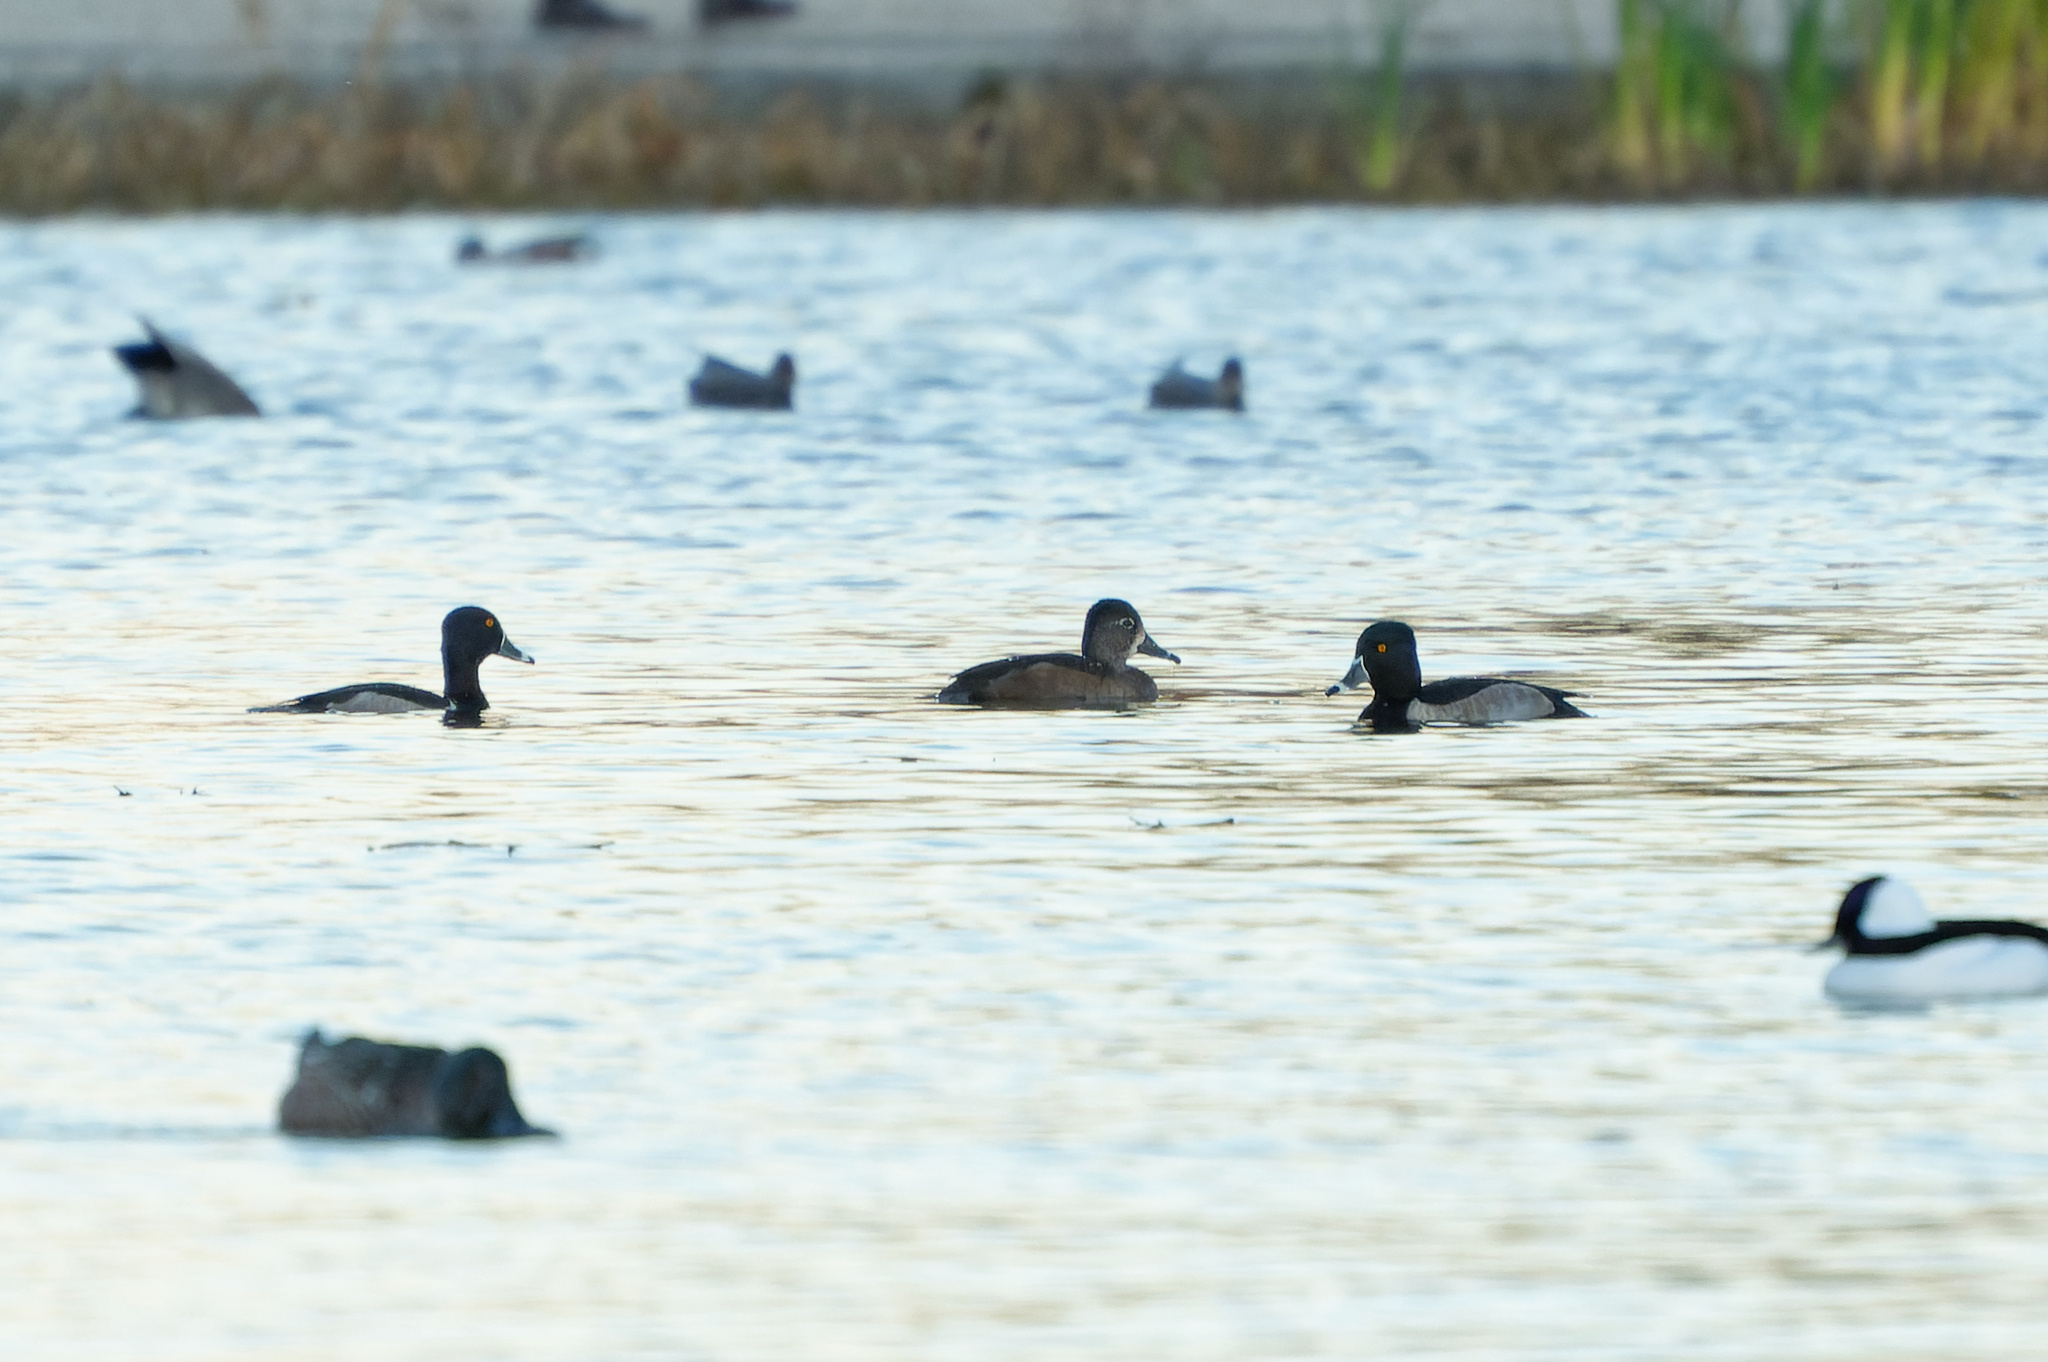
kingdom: Animalia
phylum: Chordata
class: Aves
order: Anseriformes
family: Anatidae
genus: Aythya
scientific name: Aythya collaris
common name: Ring-necked duck
